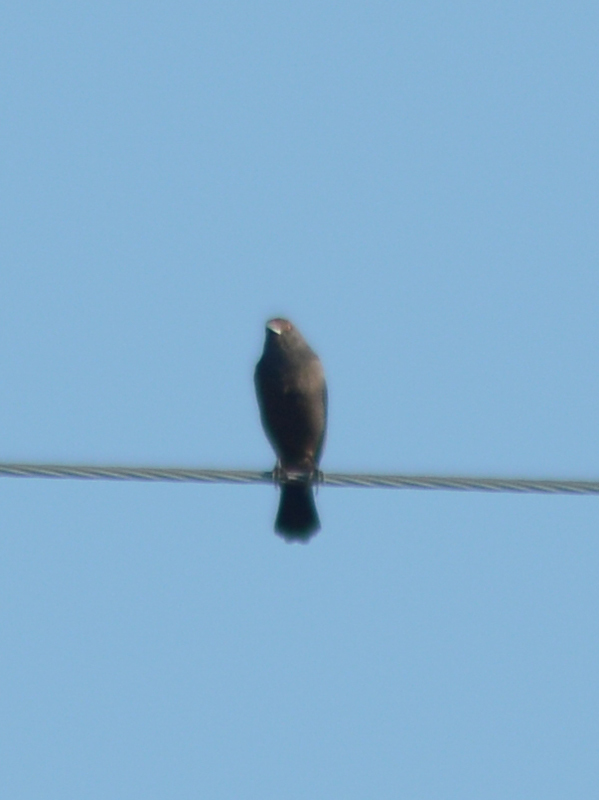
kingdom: Animalia
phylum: Chordata
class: Aves
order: Passeriformes
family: Icteridae
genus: Molothrus
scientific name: Molothrus aeneus
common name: Bronzed cowbird
